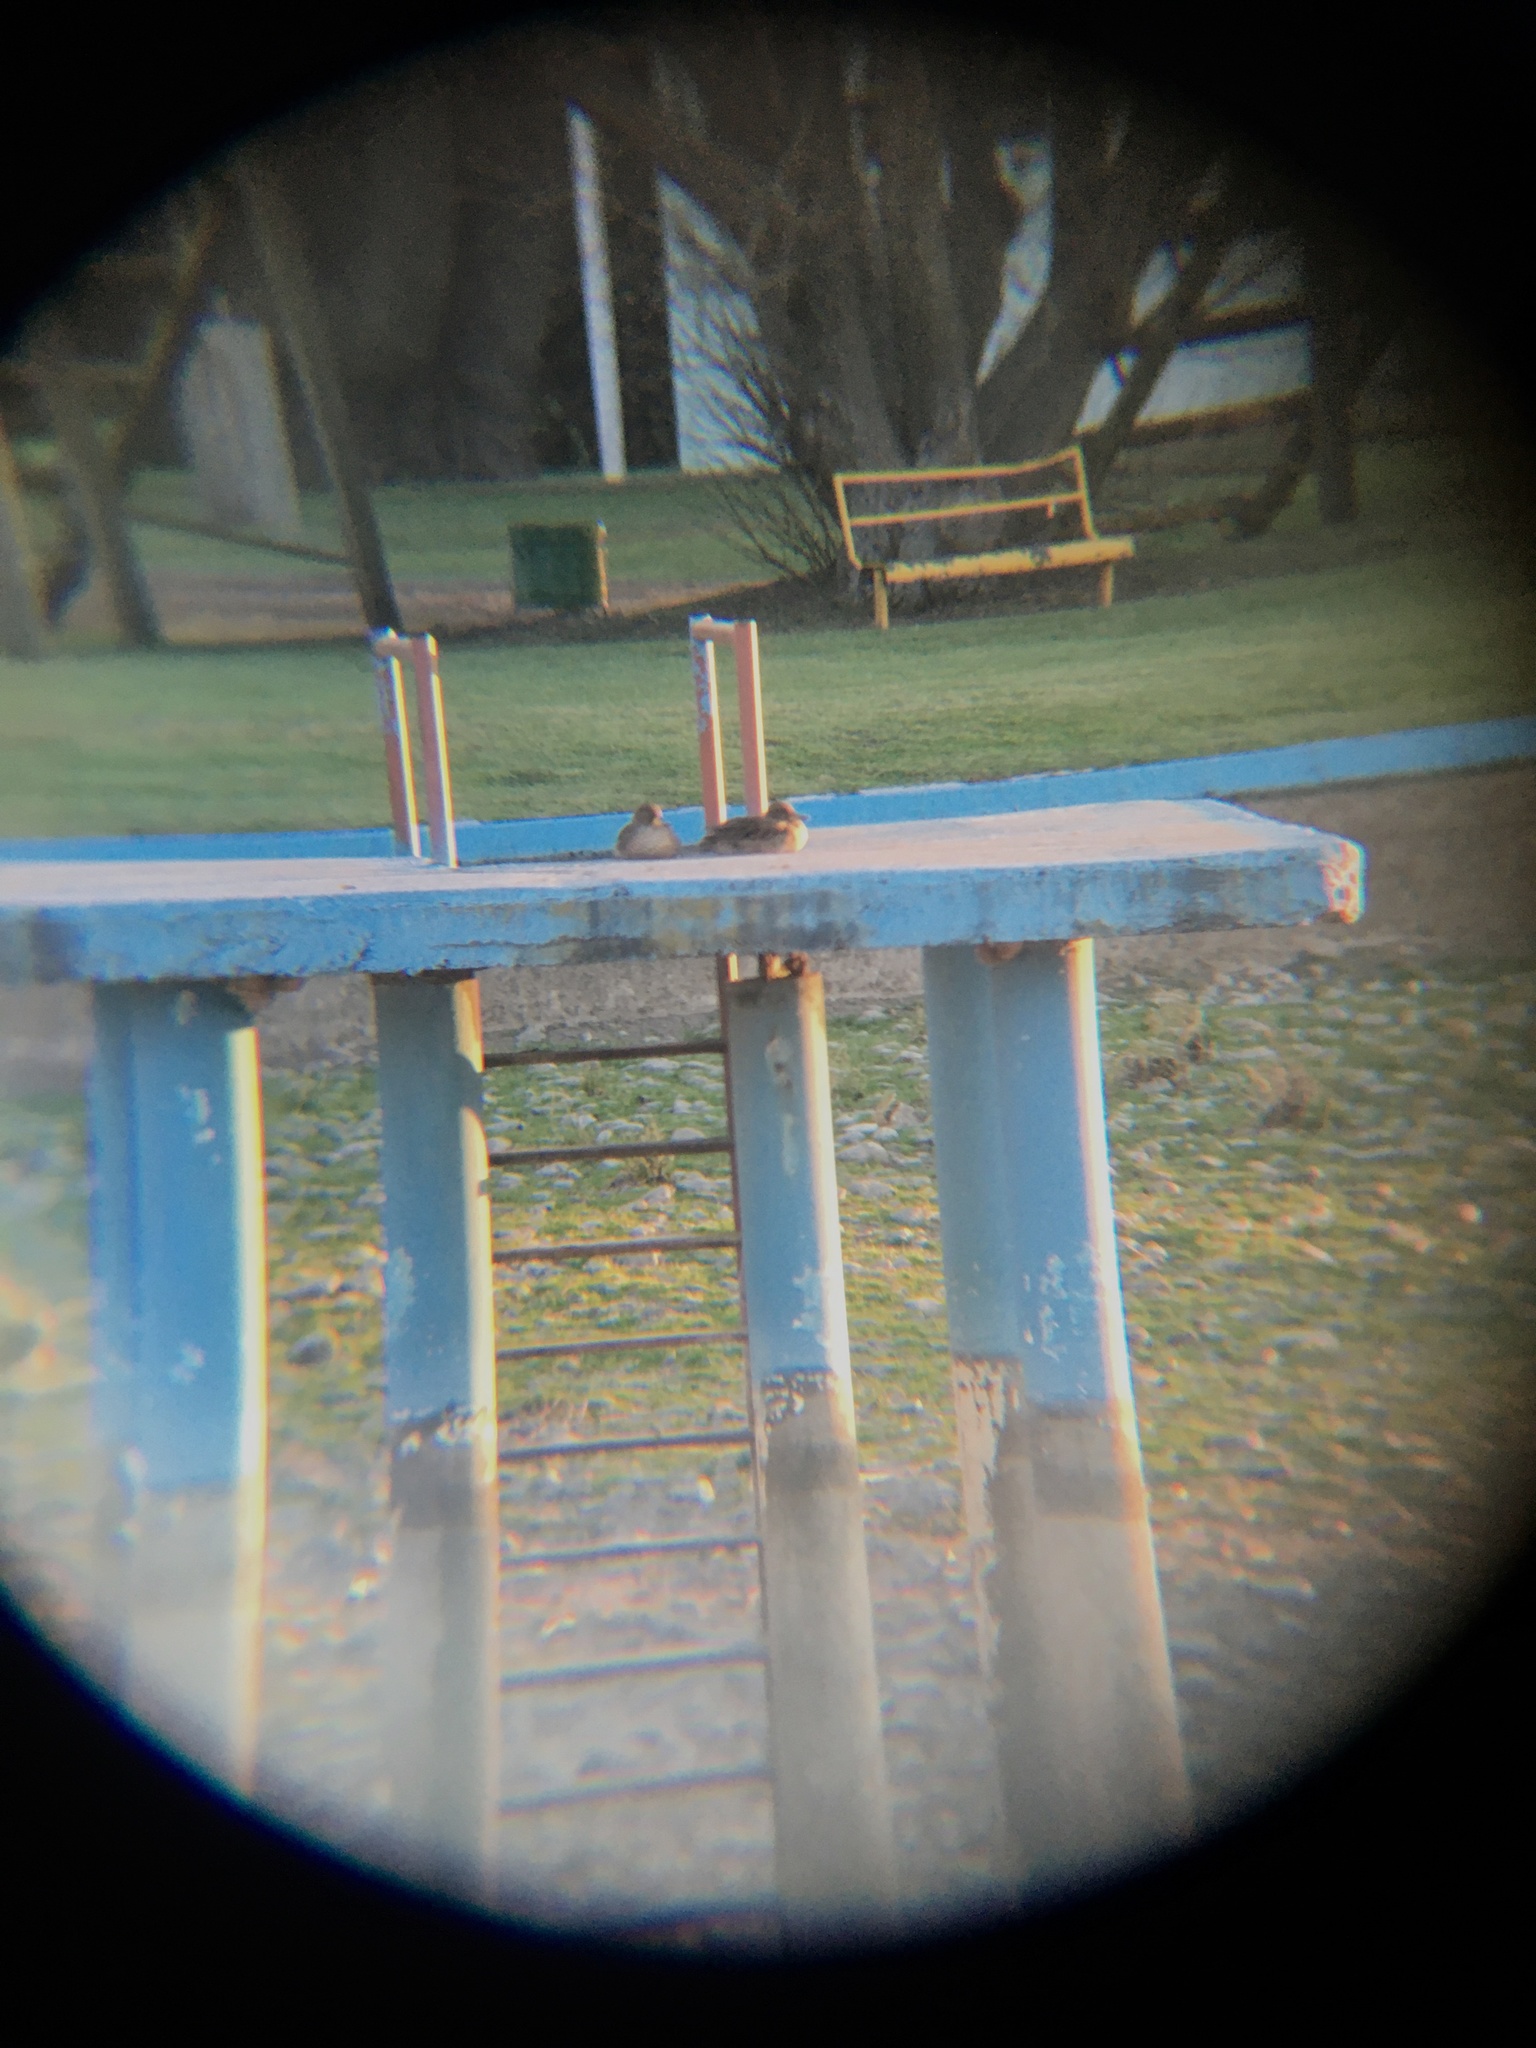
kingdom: Animalia
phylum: Chordata
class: Aves
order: Anseriformes
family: Anatidae
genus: Anas
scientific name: Anas flavirostris
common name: Yellow-billed teal
